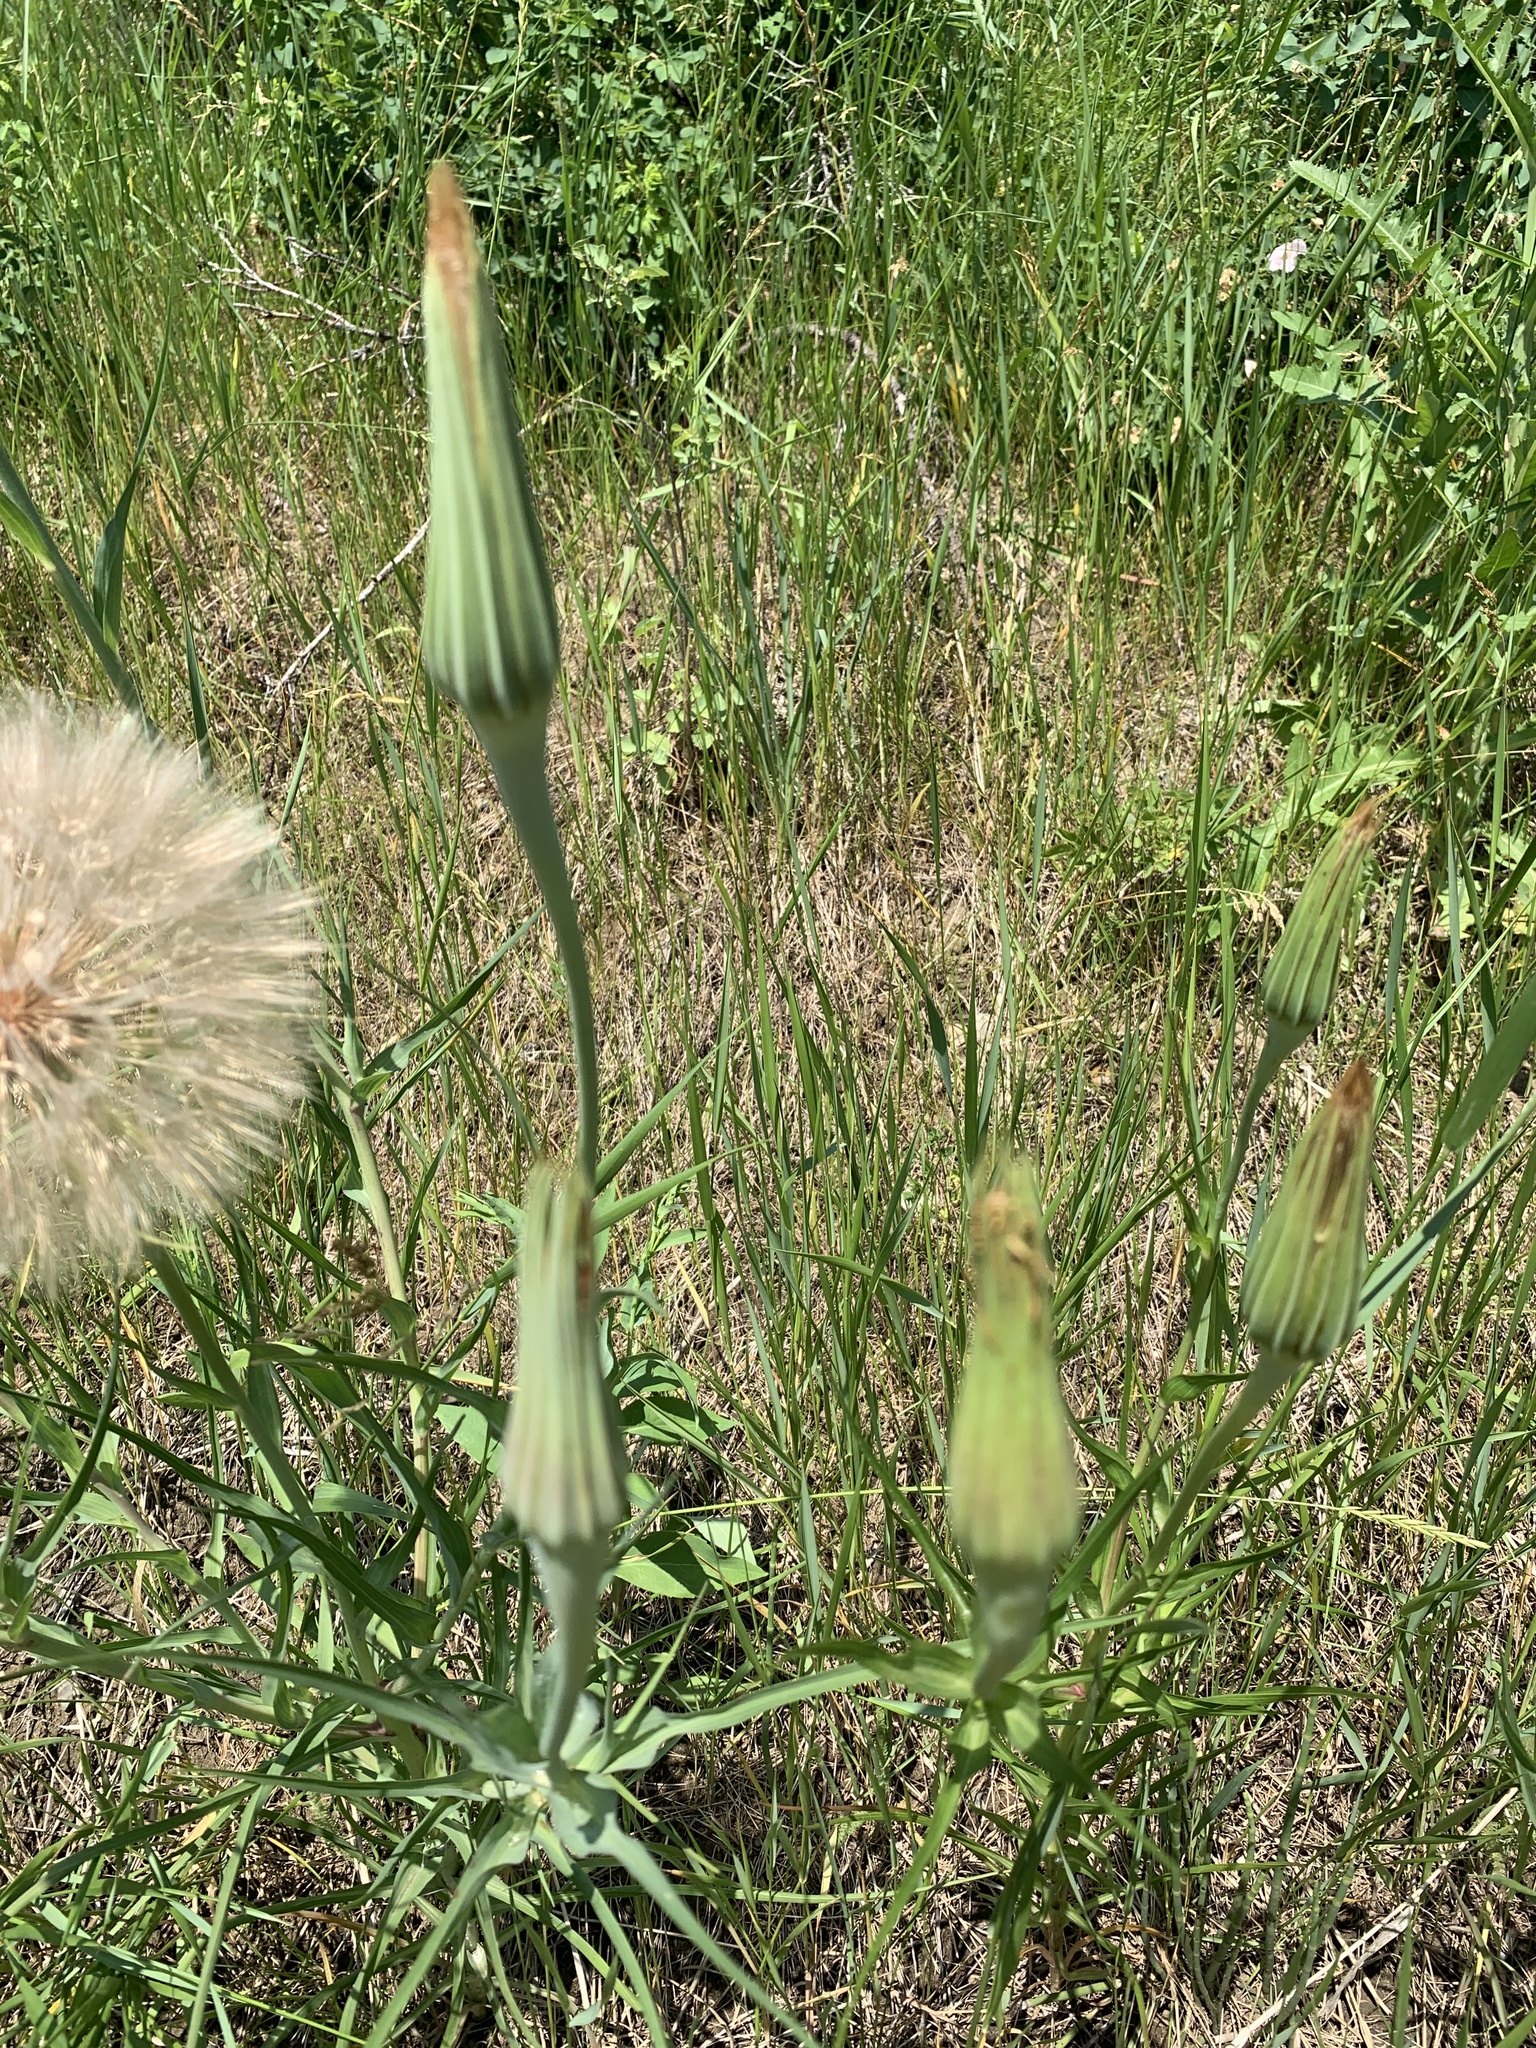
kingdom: Plantae
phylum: Tracheophyta
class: Magnoliopsida
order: Asterales
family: Asteraceae
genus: Tragopogon
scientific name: Tragopogon dubius
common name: Yellow salsify
